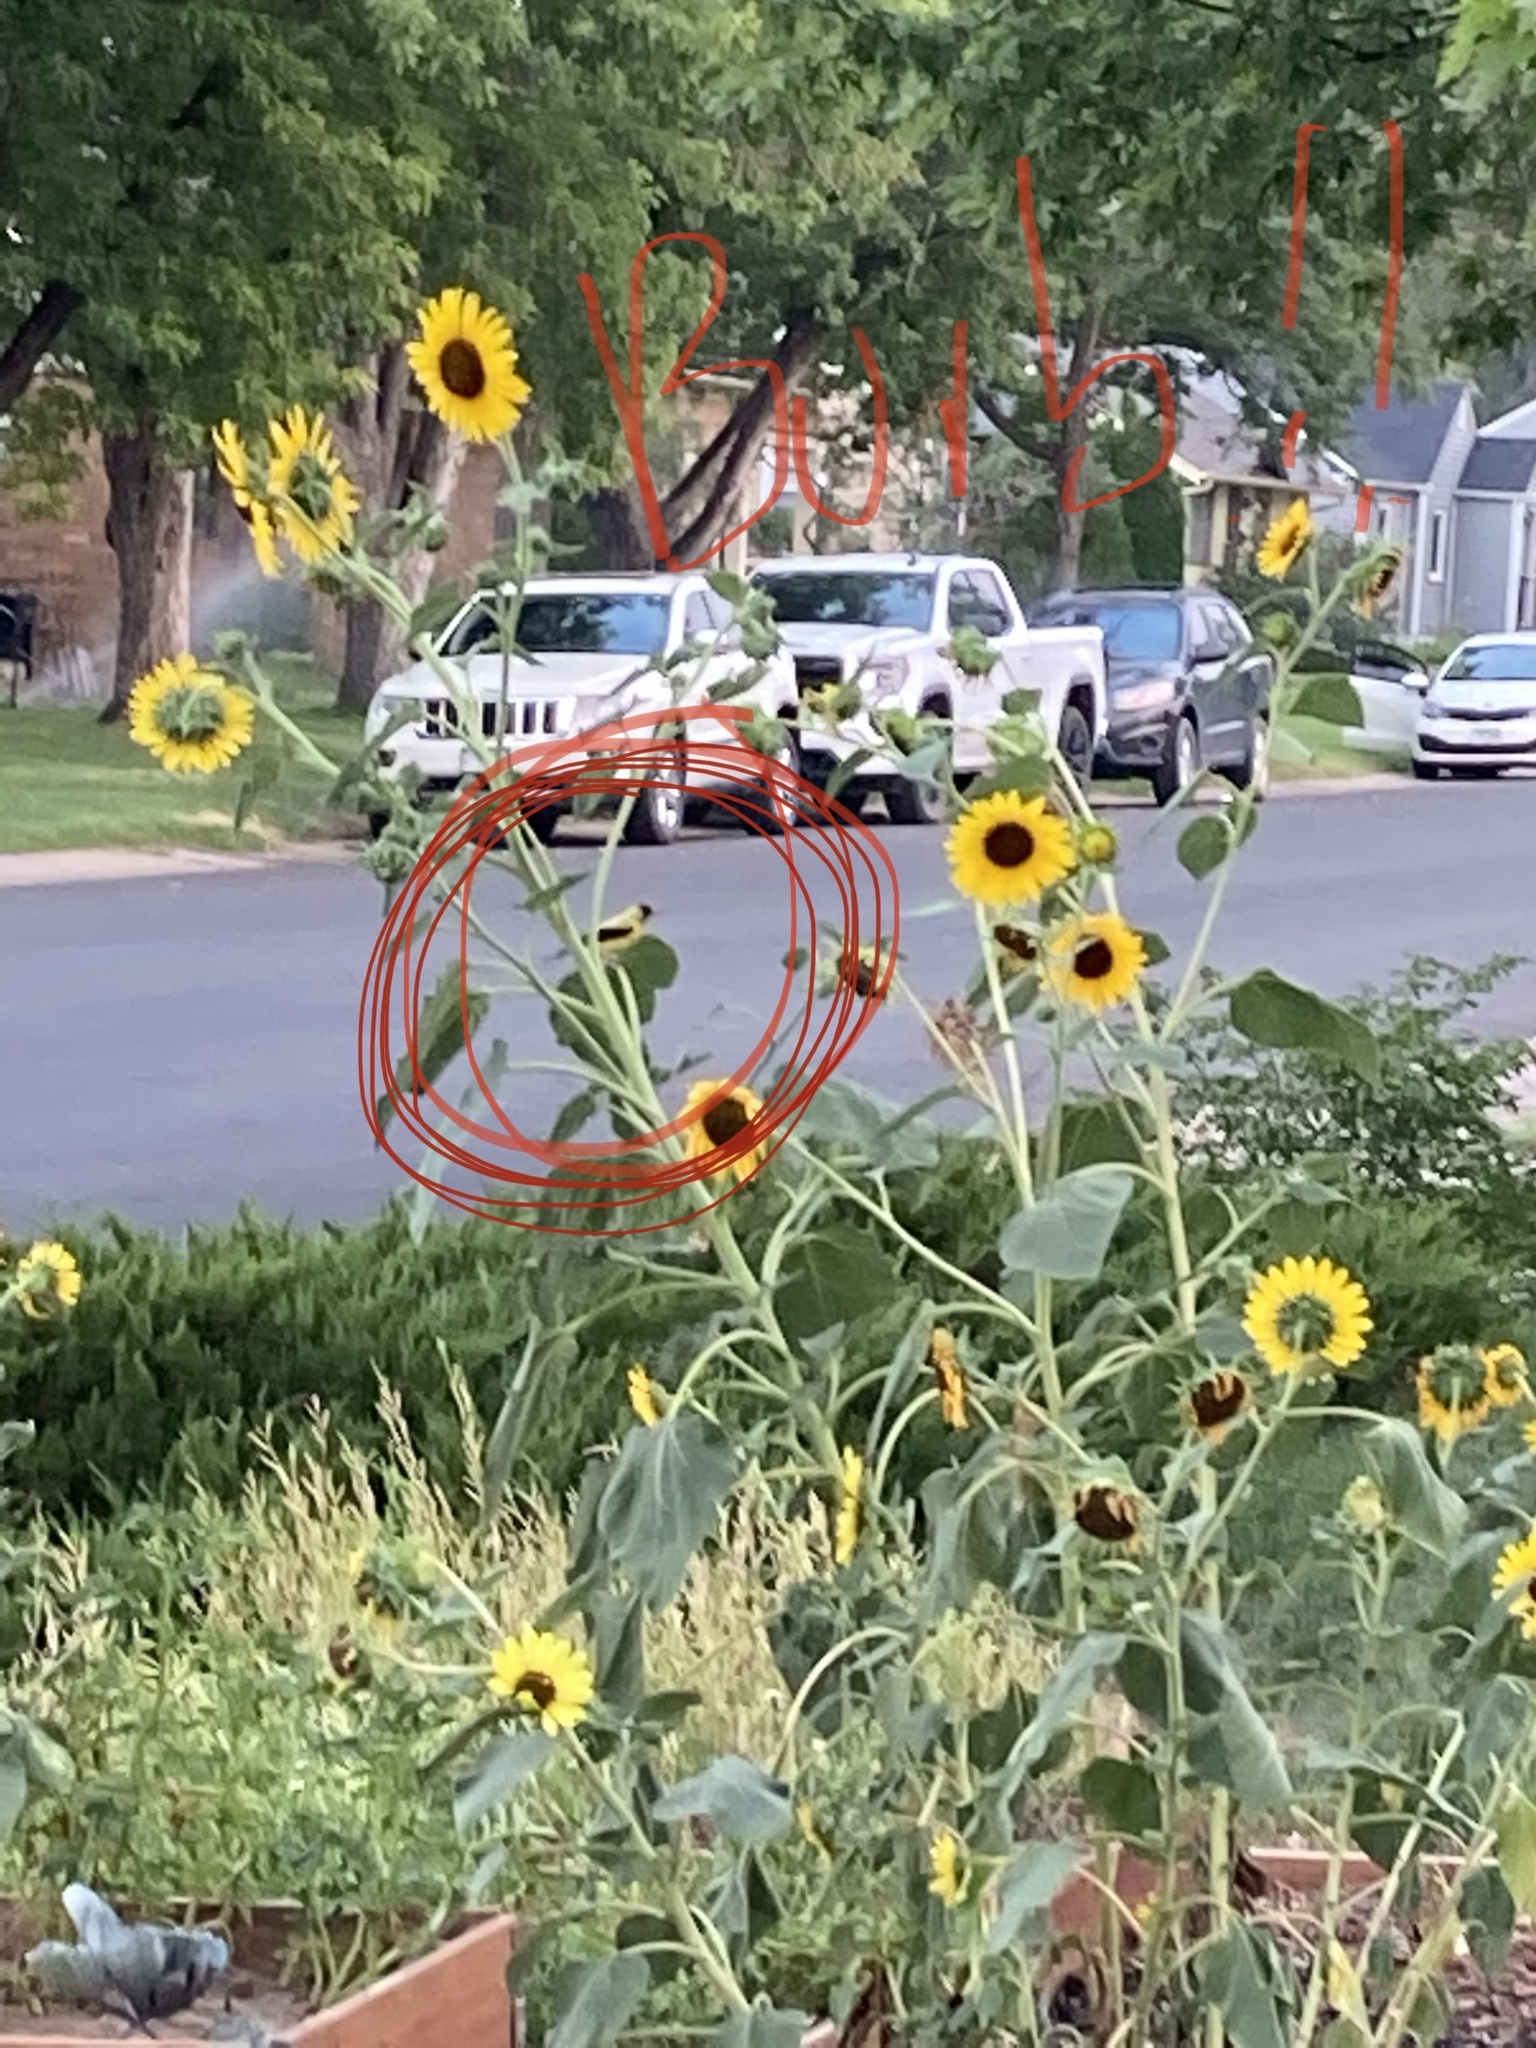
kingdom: Animalia
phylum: Chordata
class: Aves
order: Passeriformes
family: Fringillidae
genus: Spinus
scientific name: Spinus tristis
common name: American goldfinch
